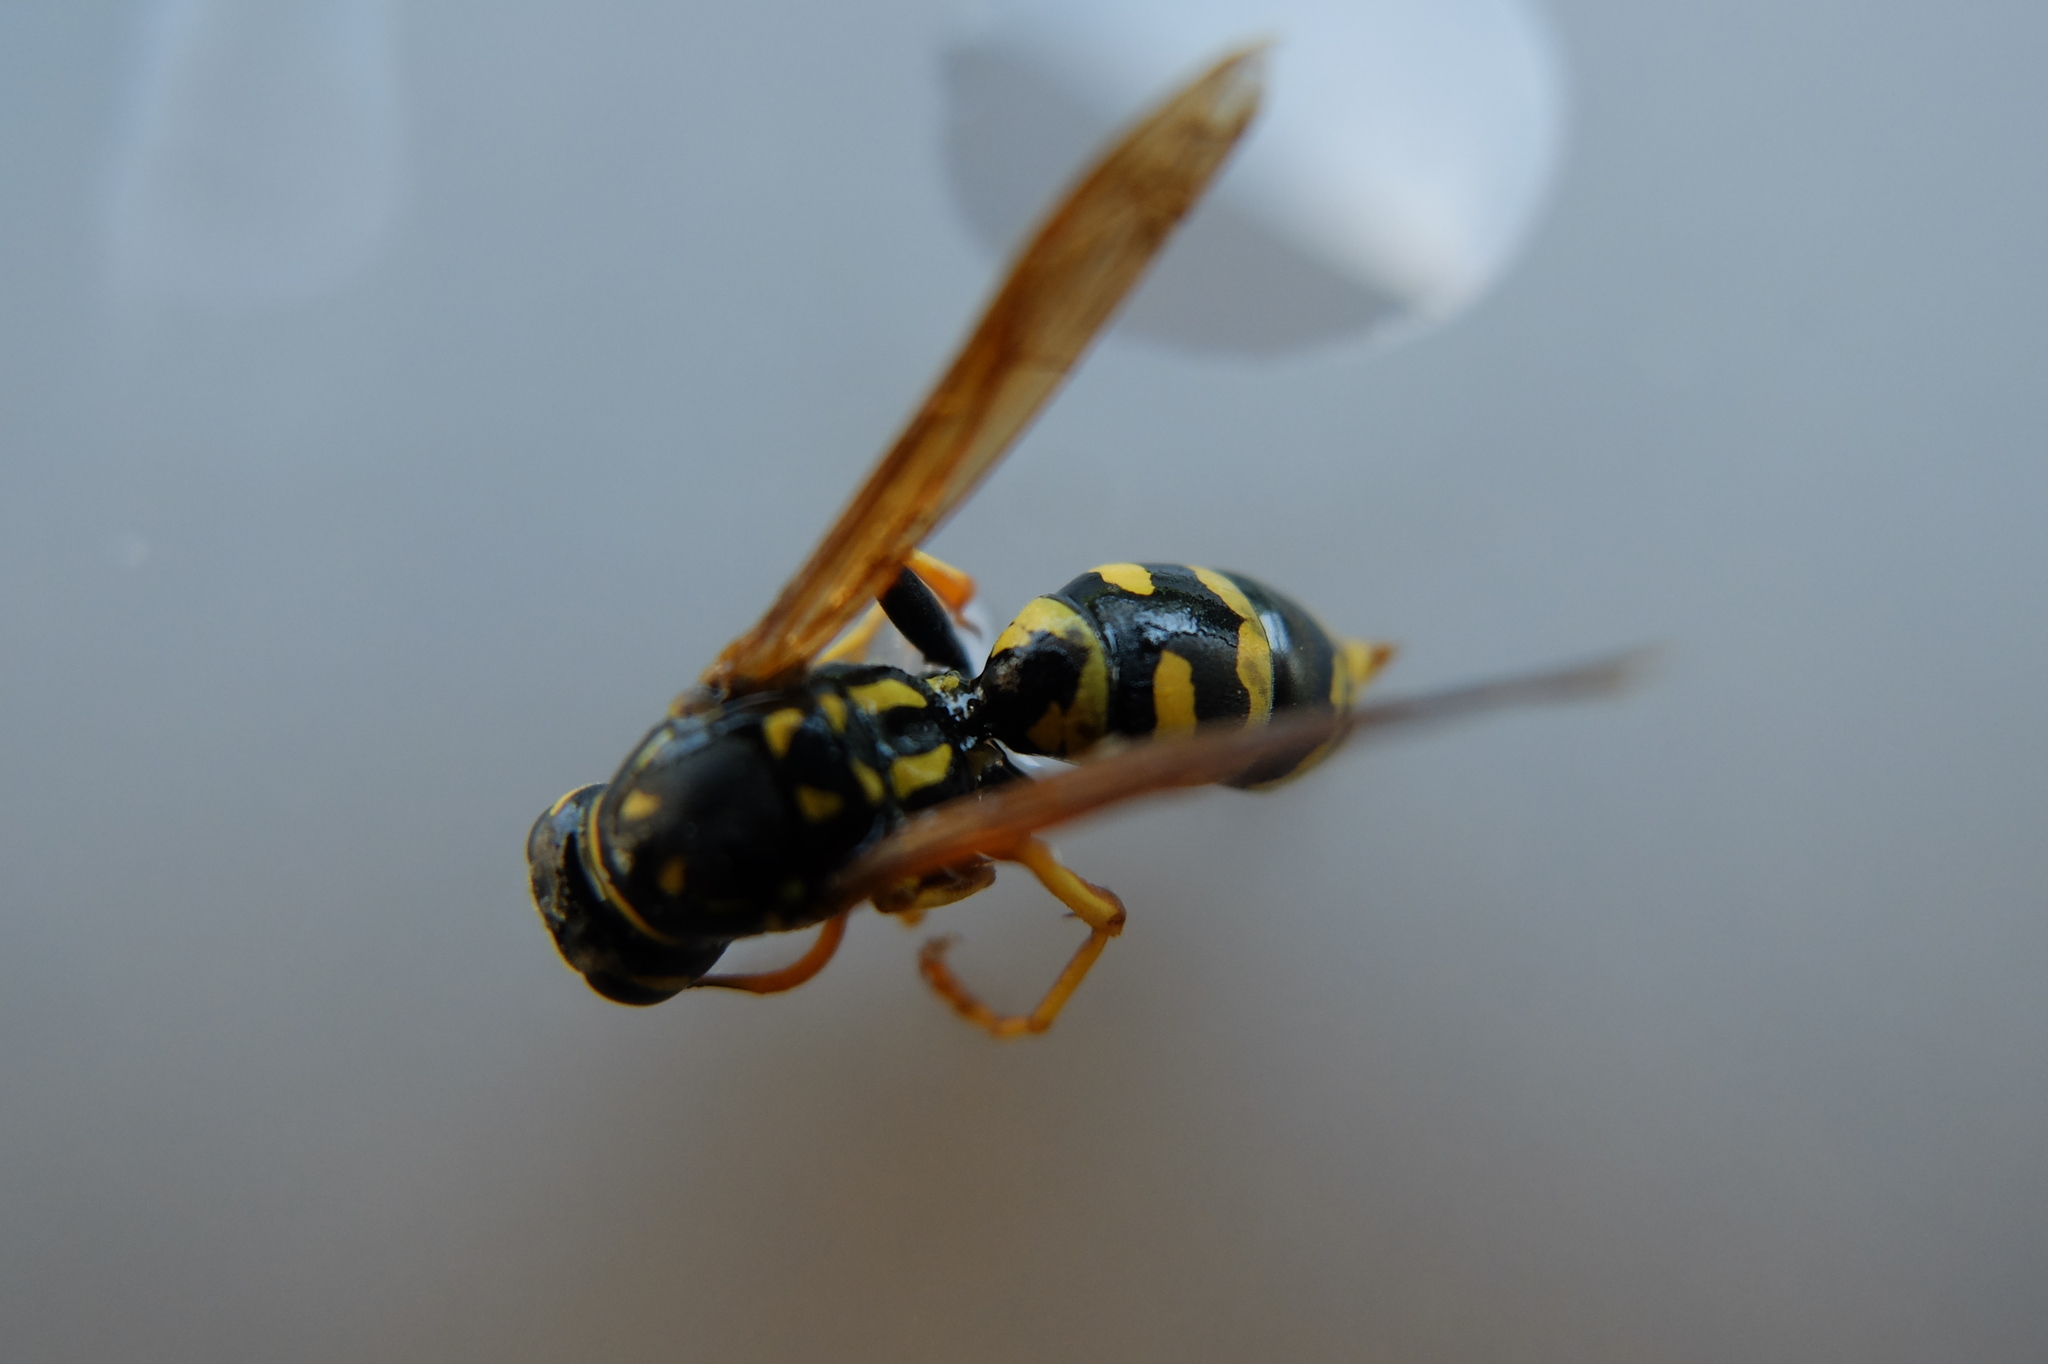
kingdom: Animalia
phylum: Arthropoda
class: Insecta
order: Hymenoptera
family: Eumenidae
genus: Polistes
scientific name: Polistes dominula
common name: Paper wasp
